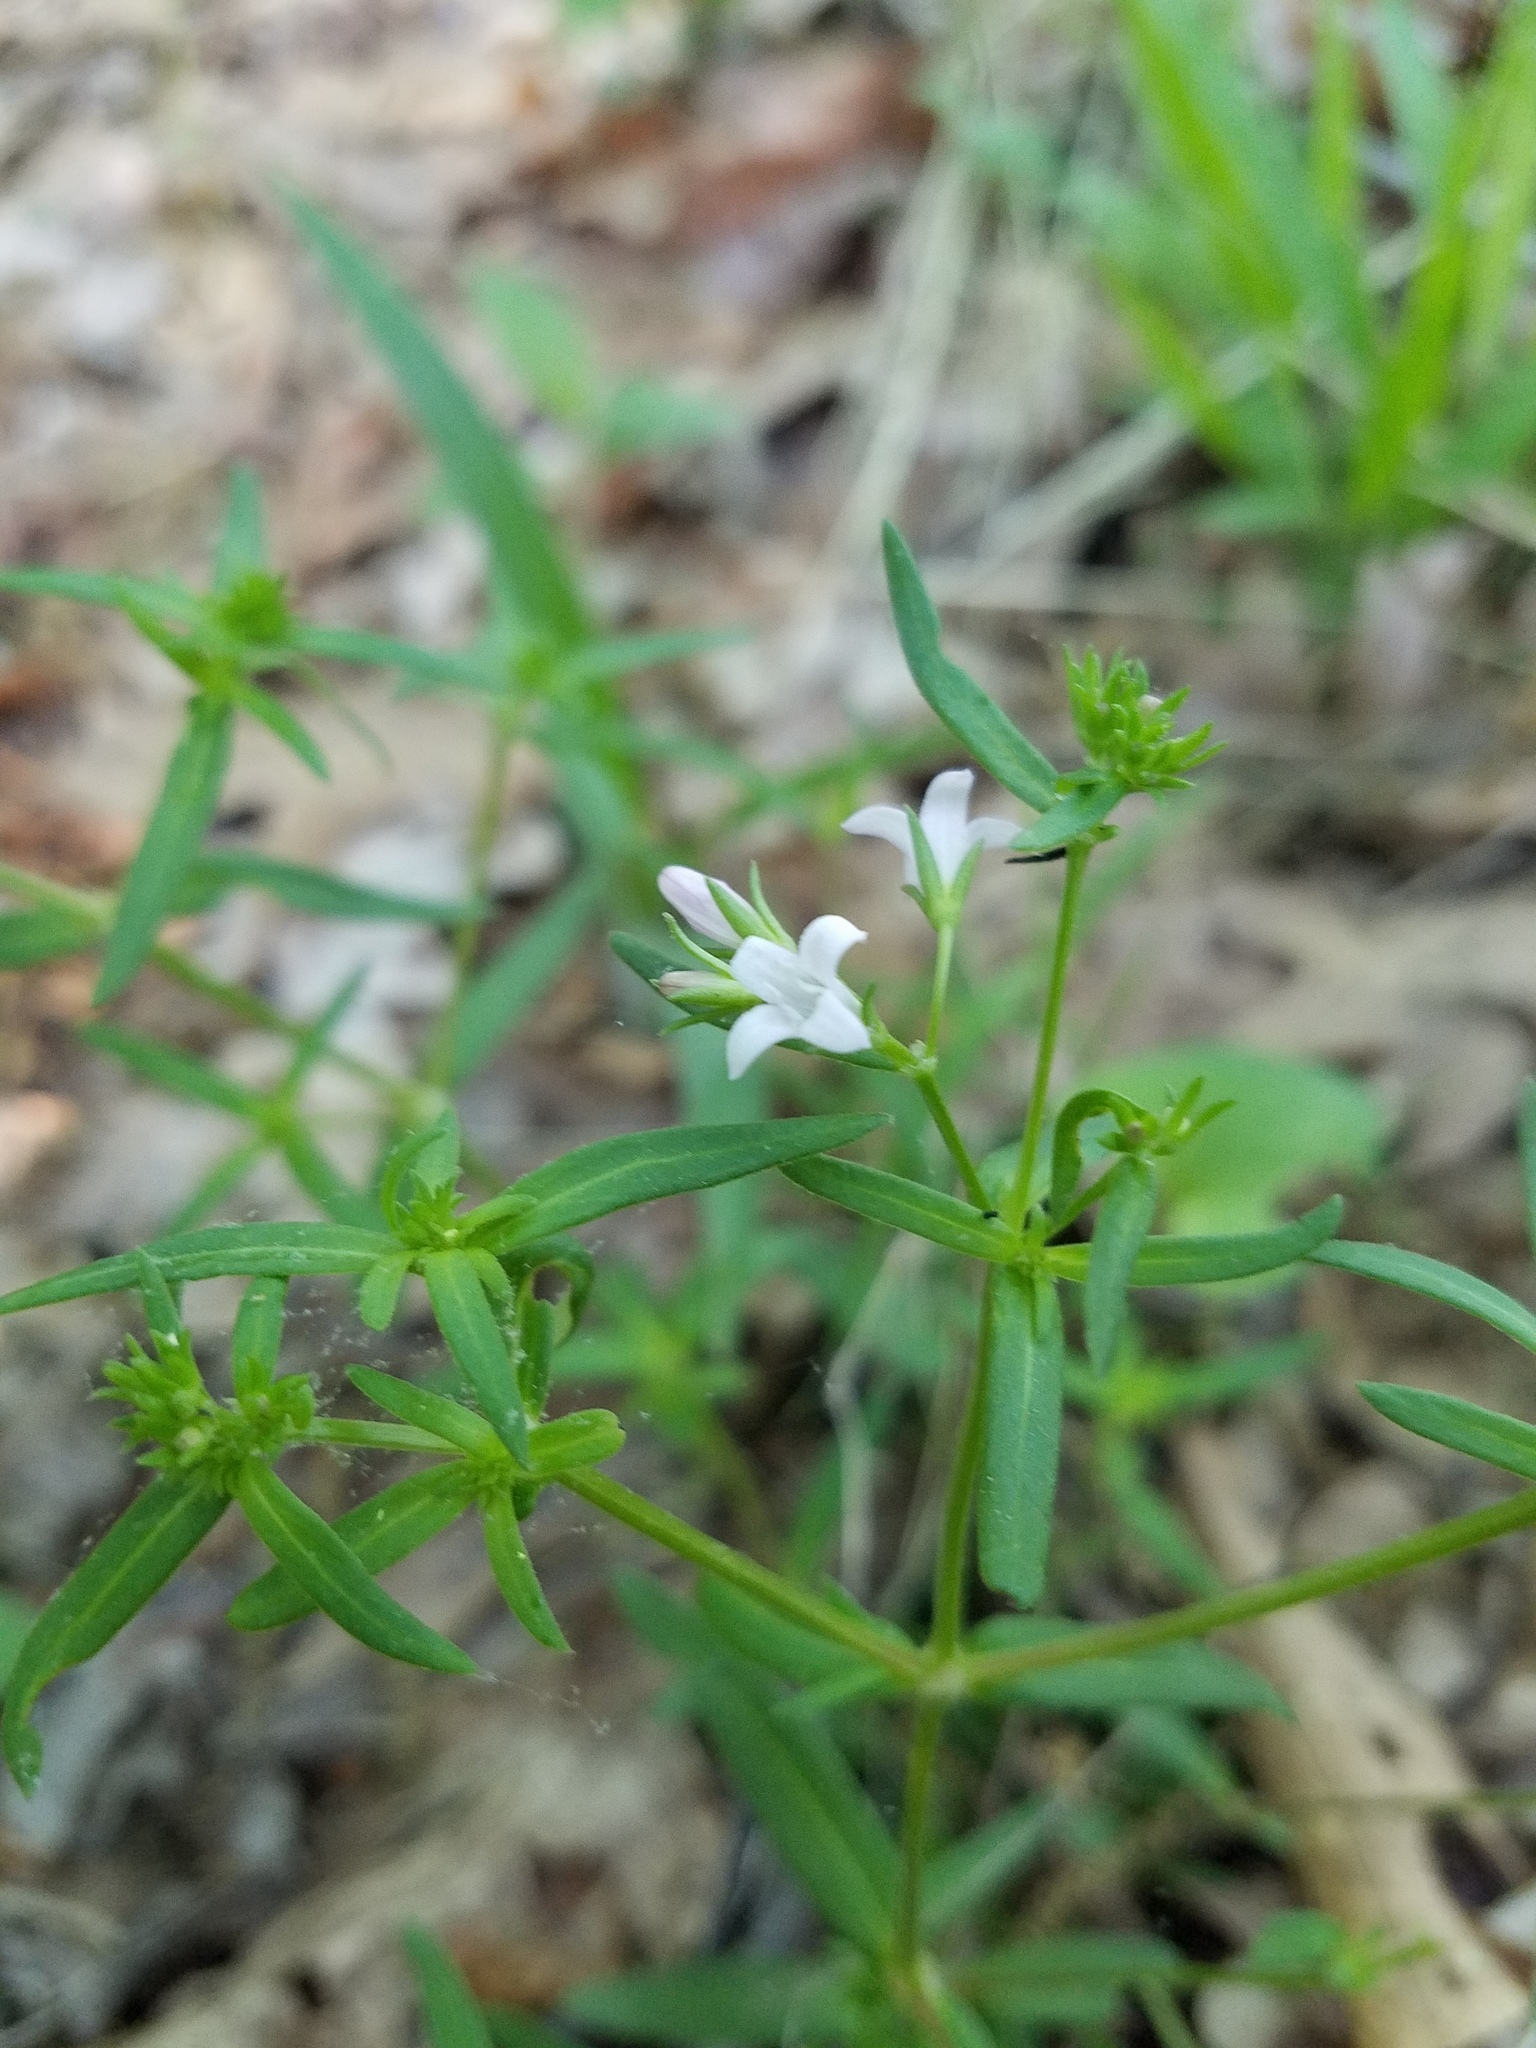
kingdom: Plantae
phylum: Tracheophyta
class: Magnoliopsida
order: Gentianales
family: Rubiaceae
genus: Houstonia
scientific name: Houstonia longifolia
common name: Long-leaved bluets
